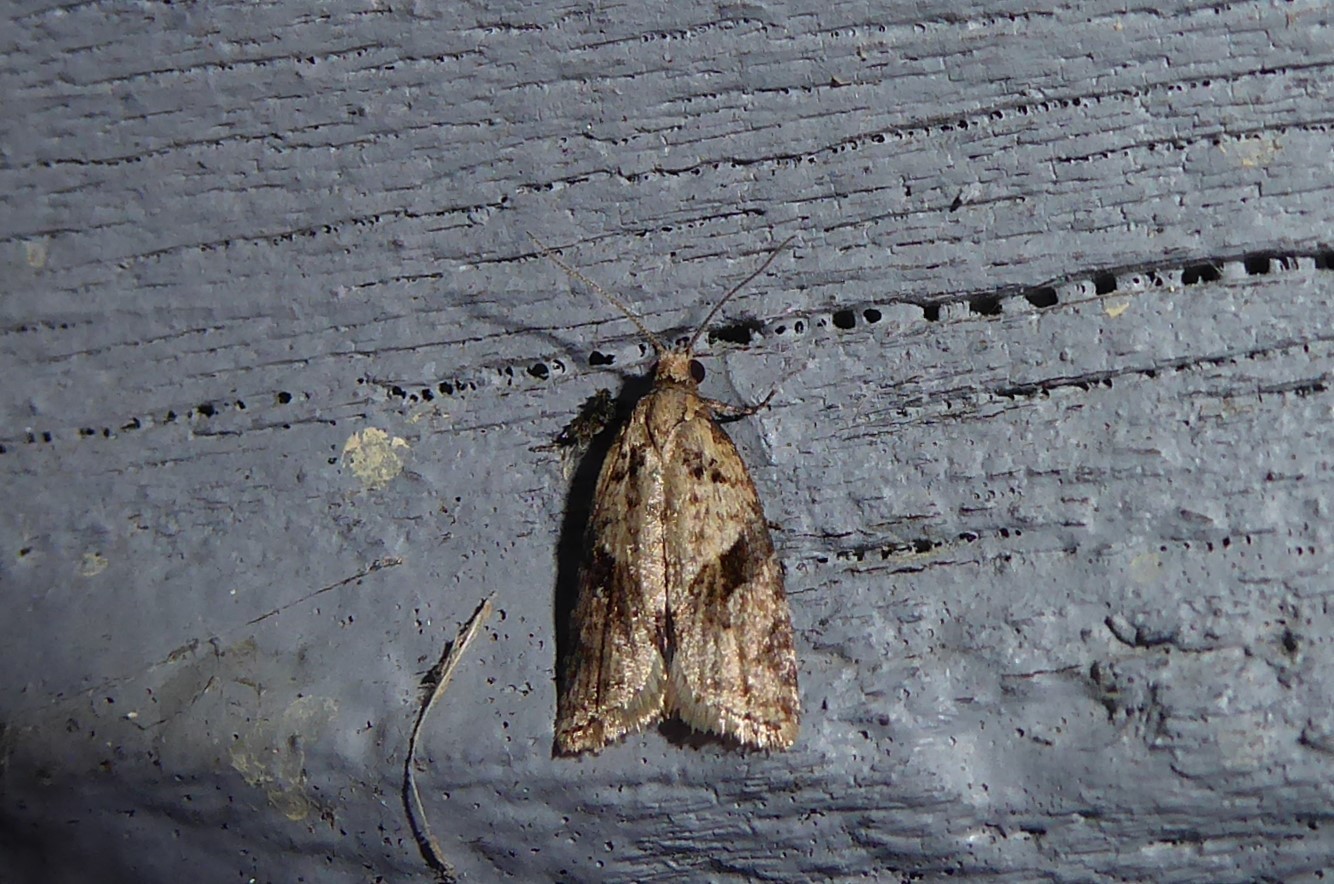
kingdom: Animalia
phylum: Arthropoda
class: Insecta
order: Lepidoptera
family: Tortricidae
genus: Capua
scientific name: Capua semiferana
